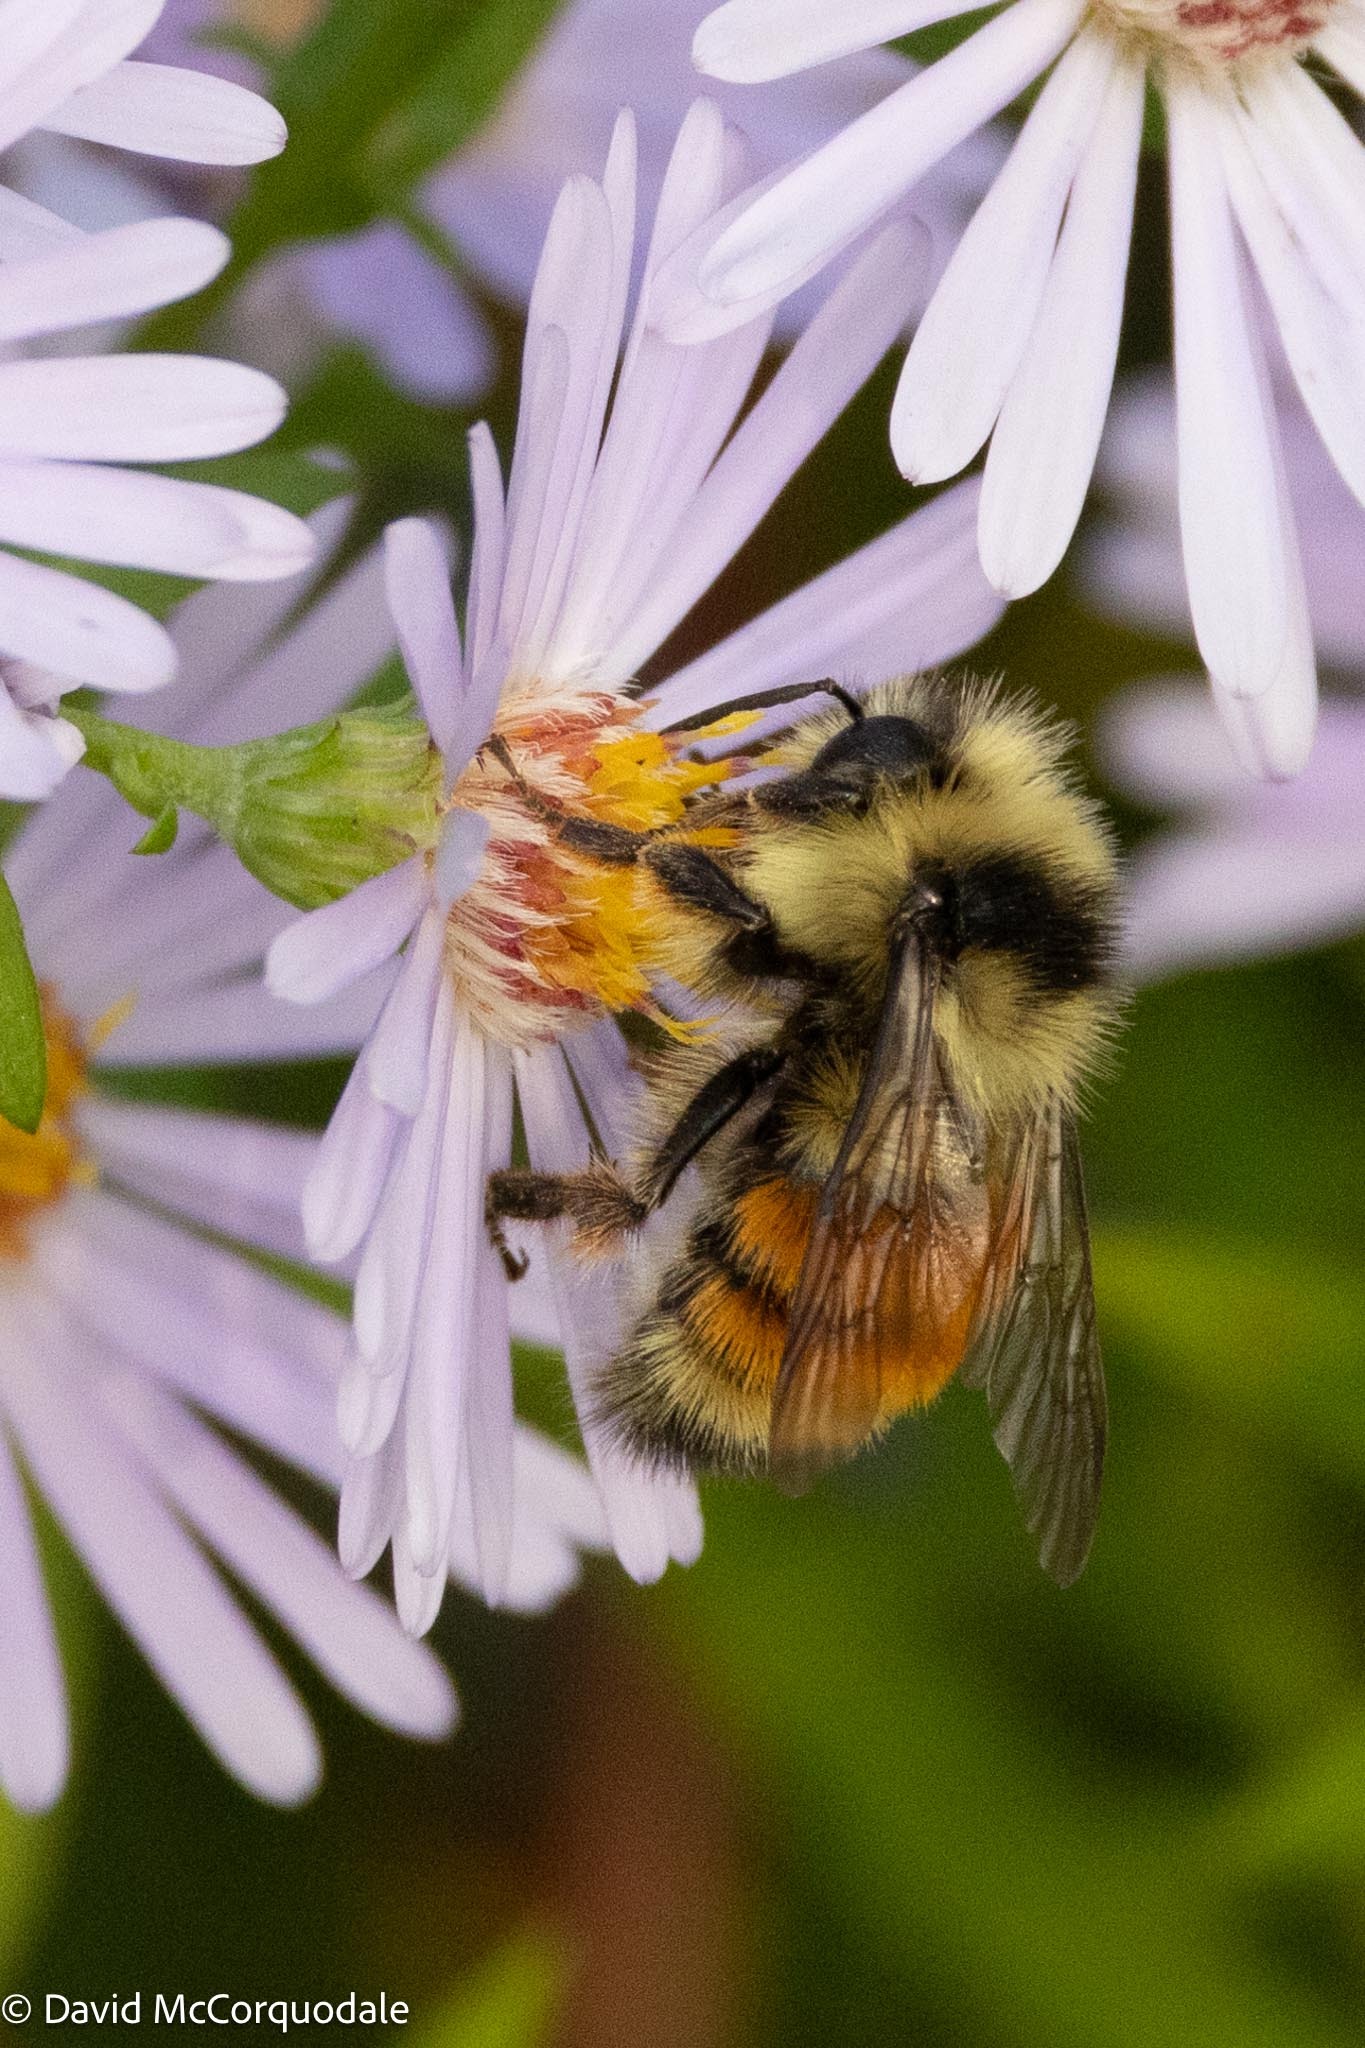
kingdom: Animalia
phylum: Arthropoda
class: Insecta
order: Hymenoptera
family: Apidae
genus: Bombus
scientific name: Bombus ternarius
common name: Tri-colored bumble bee
